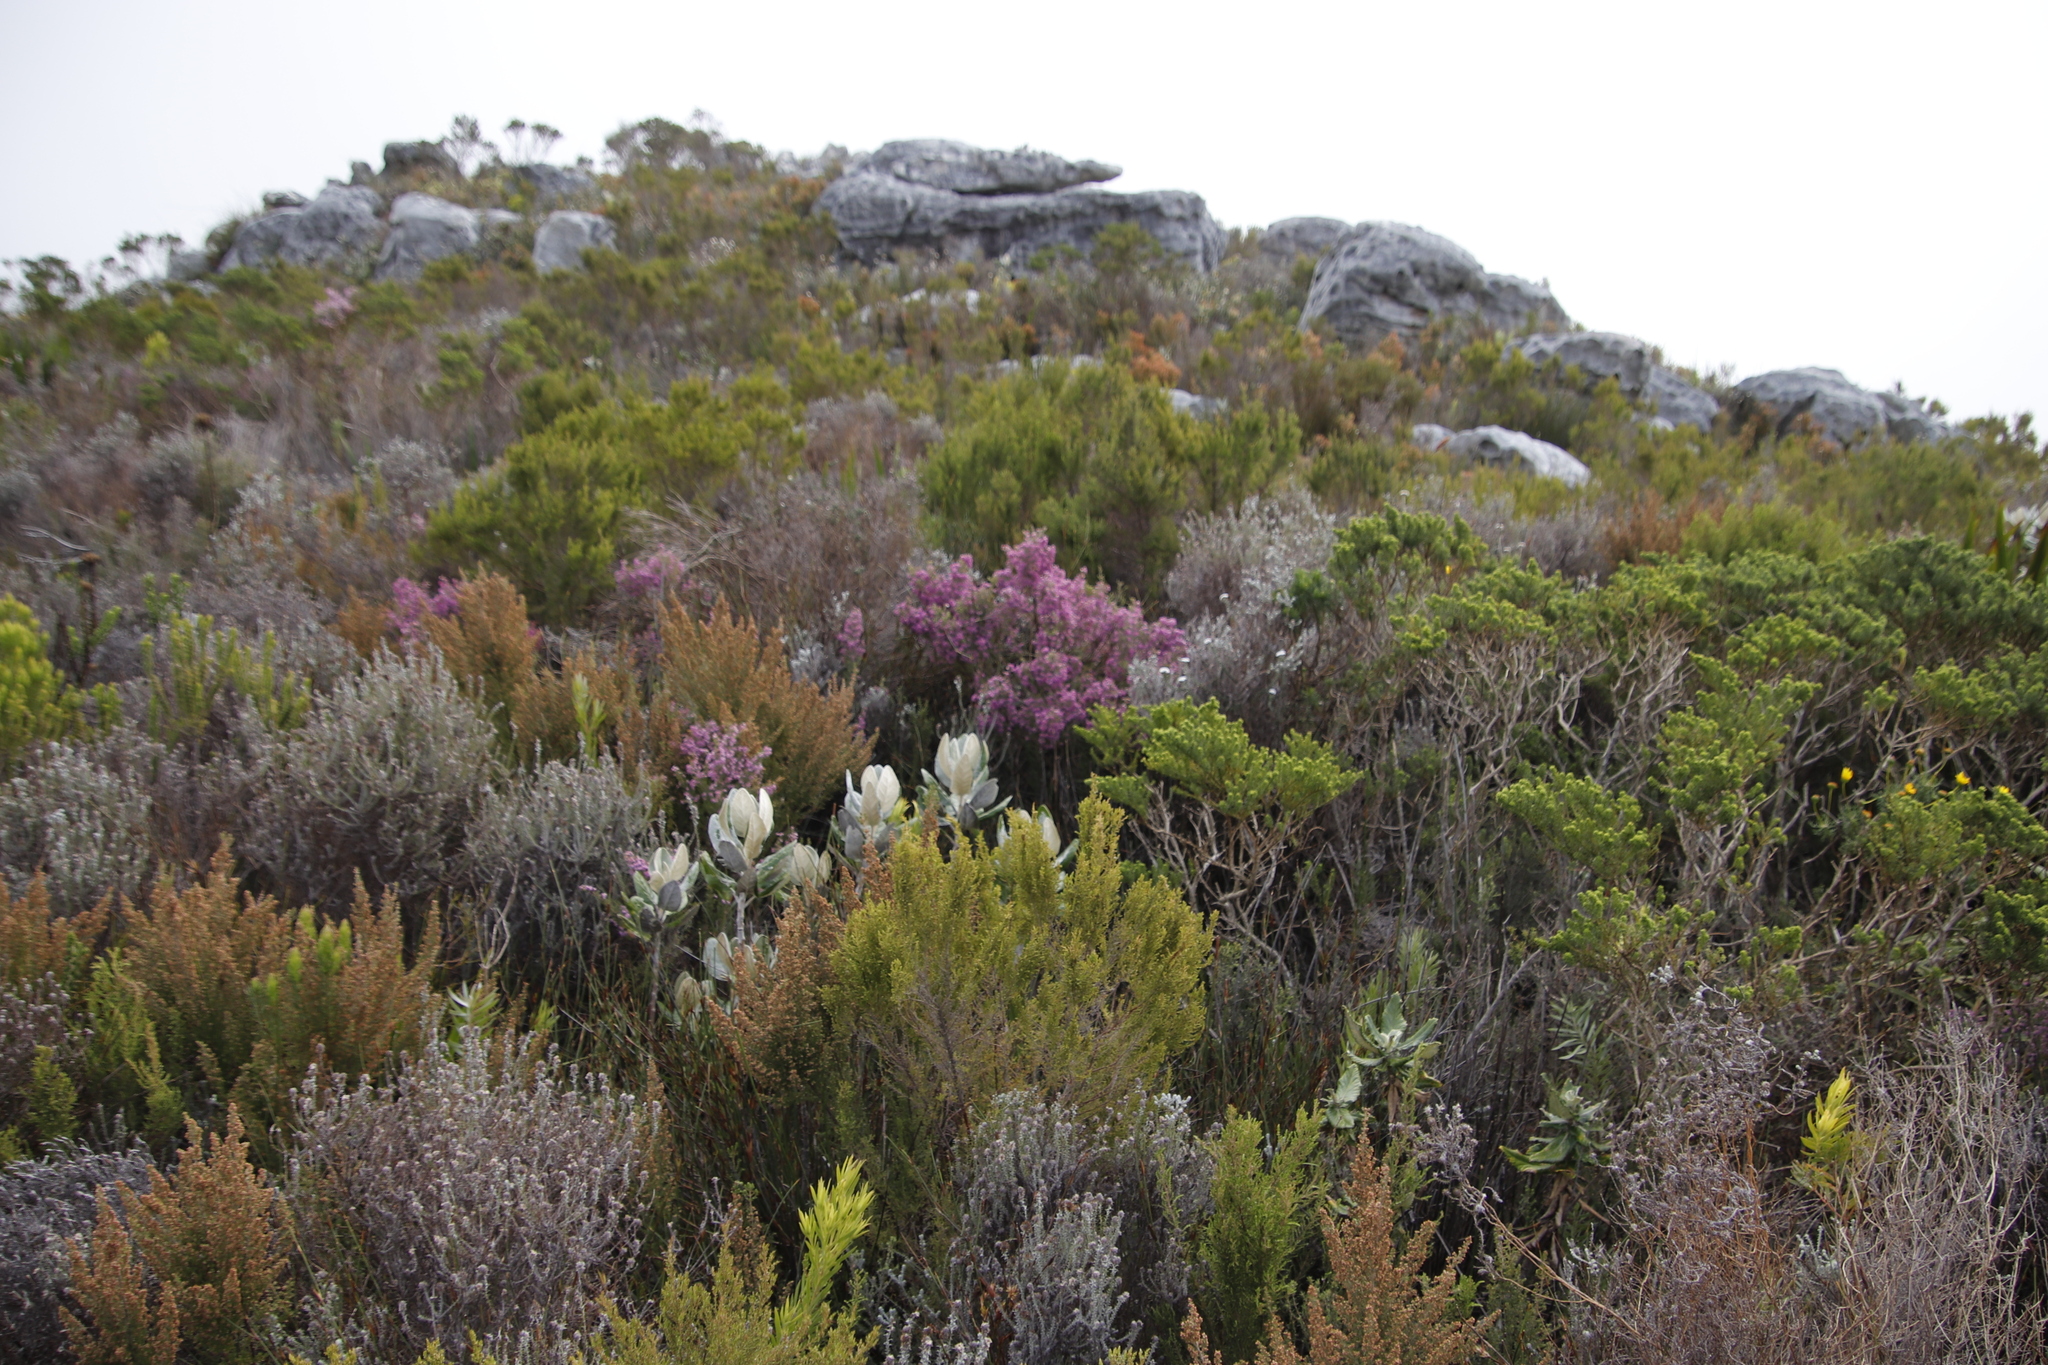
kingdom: Plantae
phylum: Tracheophyta
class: Magnoliopsida
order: Ericales
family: Ericaceae
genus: Erica
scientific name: Erica hirtiflora
